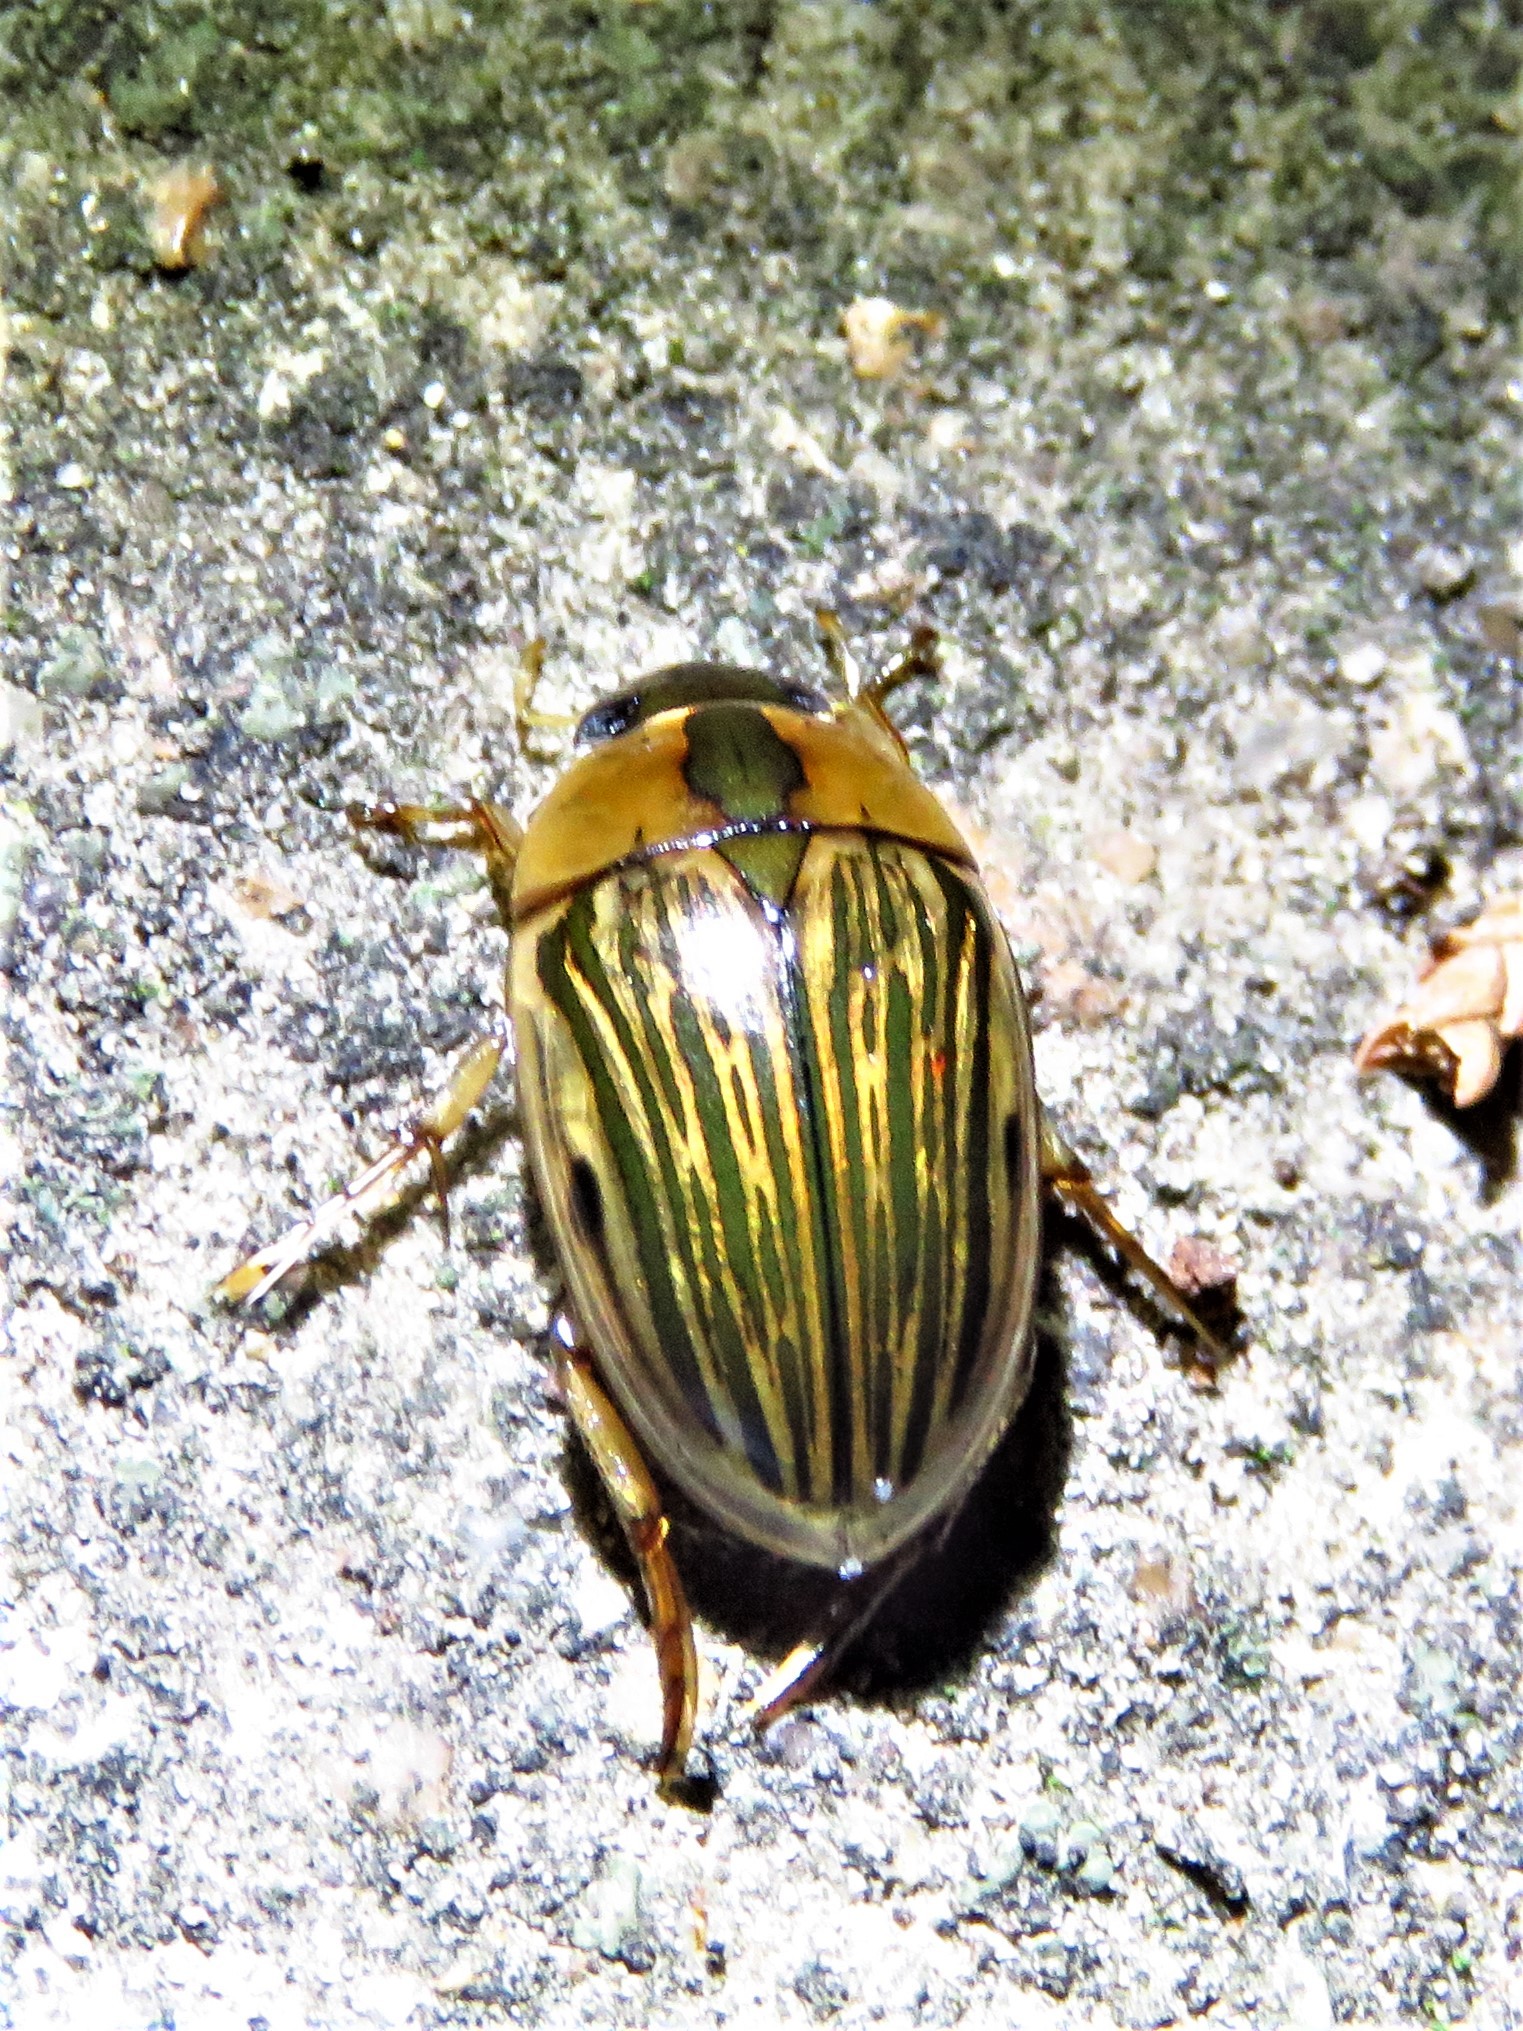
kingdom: Animalia
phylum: Arthropoda
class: Insecta
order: Coleoptera
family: Hydrophilidae
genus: Tropisternus
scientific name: Tropisternus collaris
